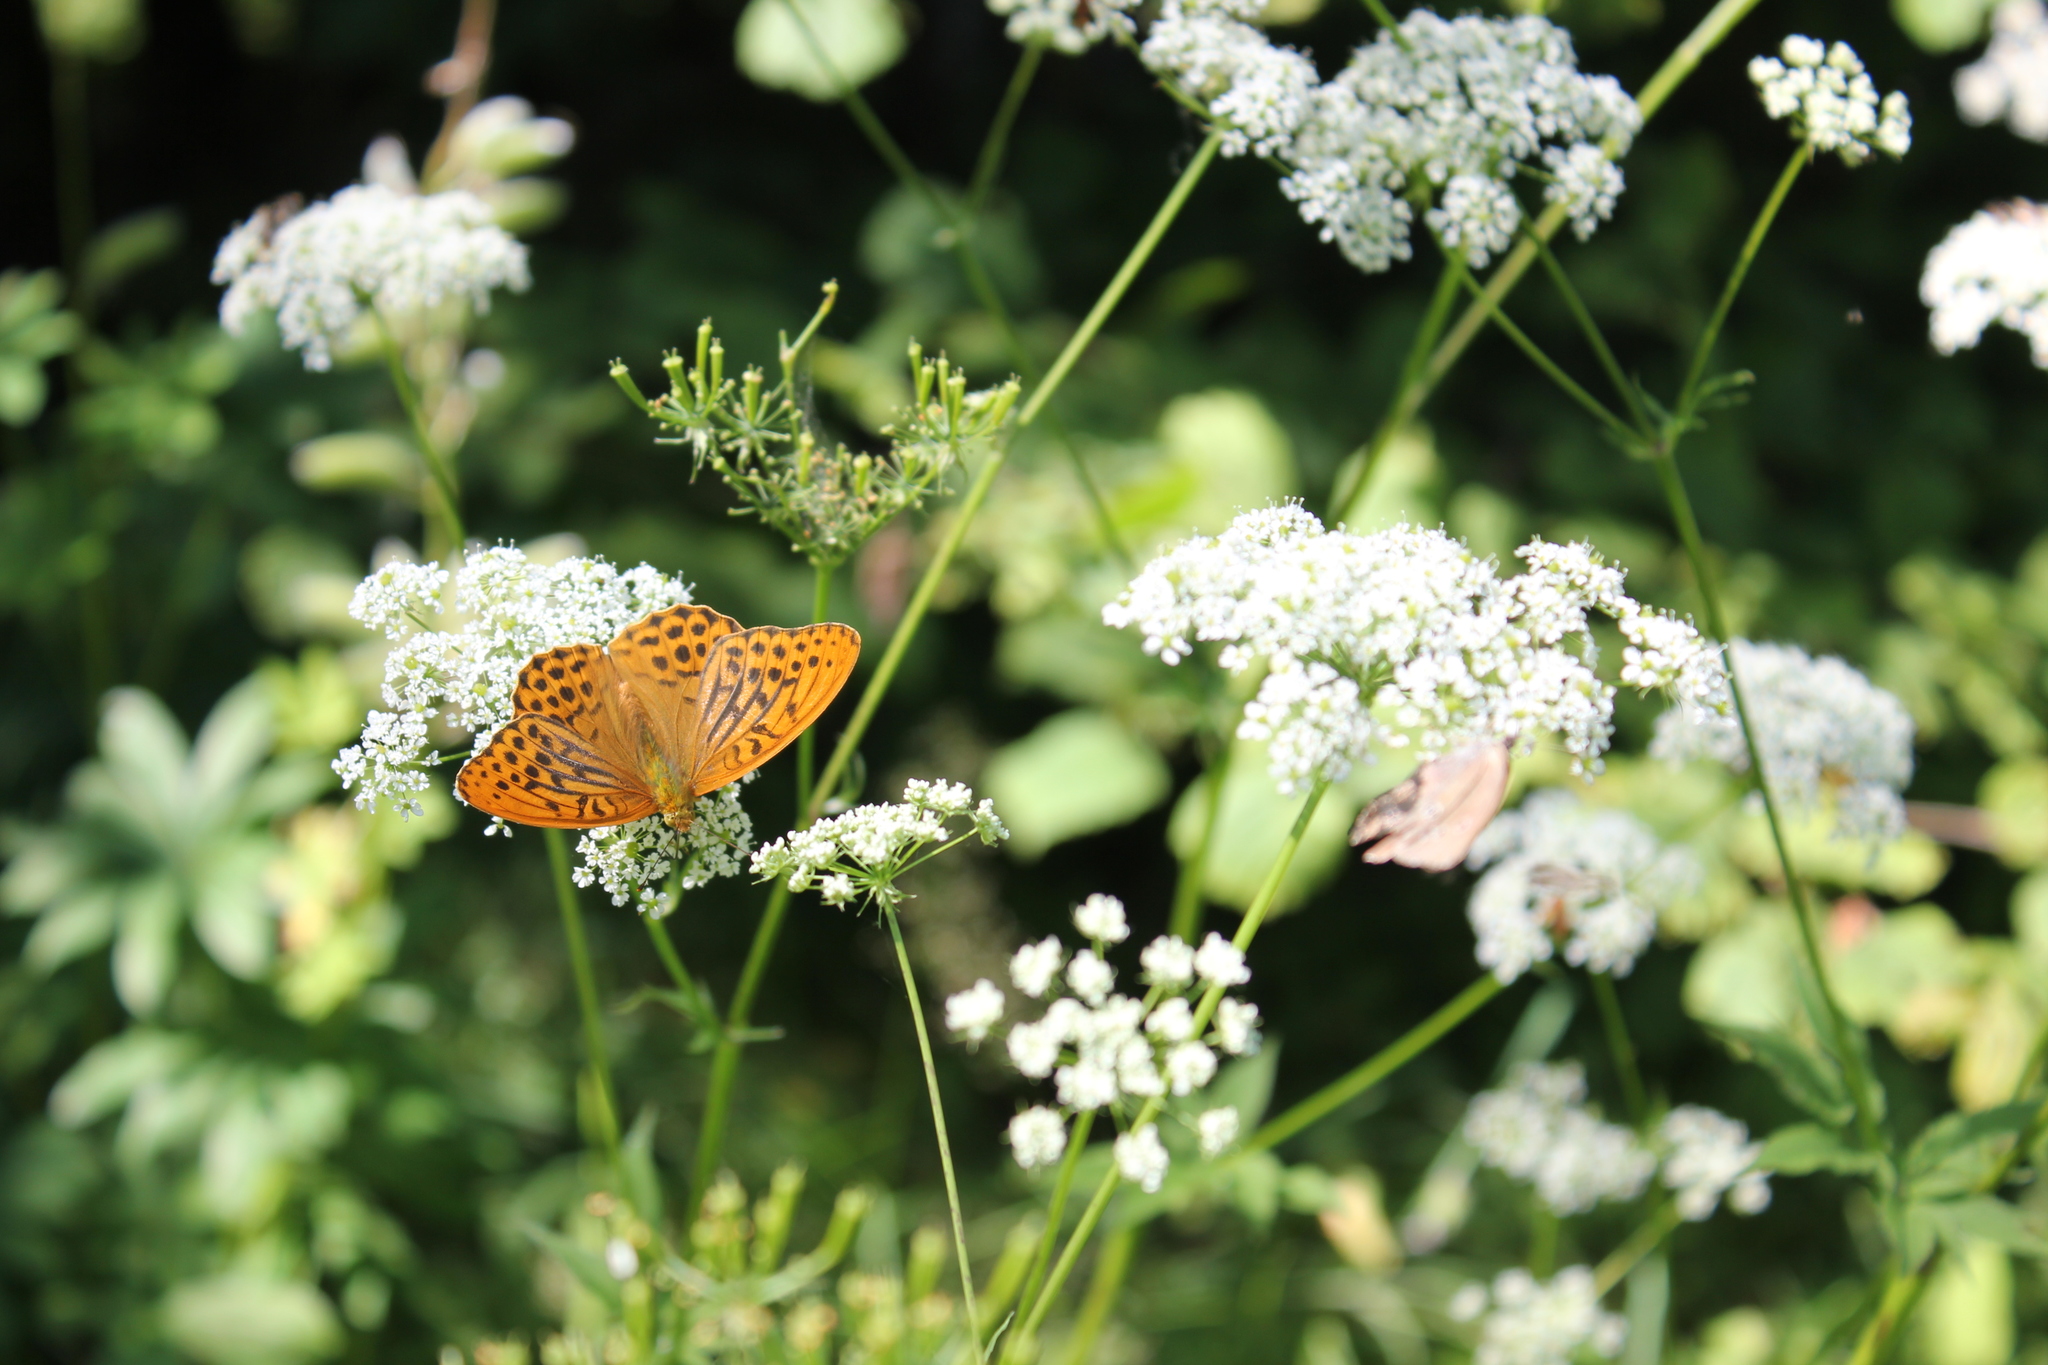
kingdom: Animalia
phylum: Arthropoda
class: Insecta
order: Lepidoptera
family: Nymphalidae
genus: Argynnis
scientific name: Argynnis paphia
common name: Silver-washed fritillary
